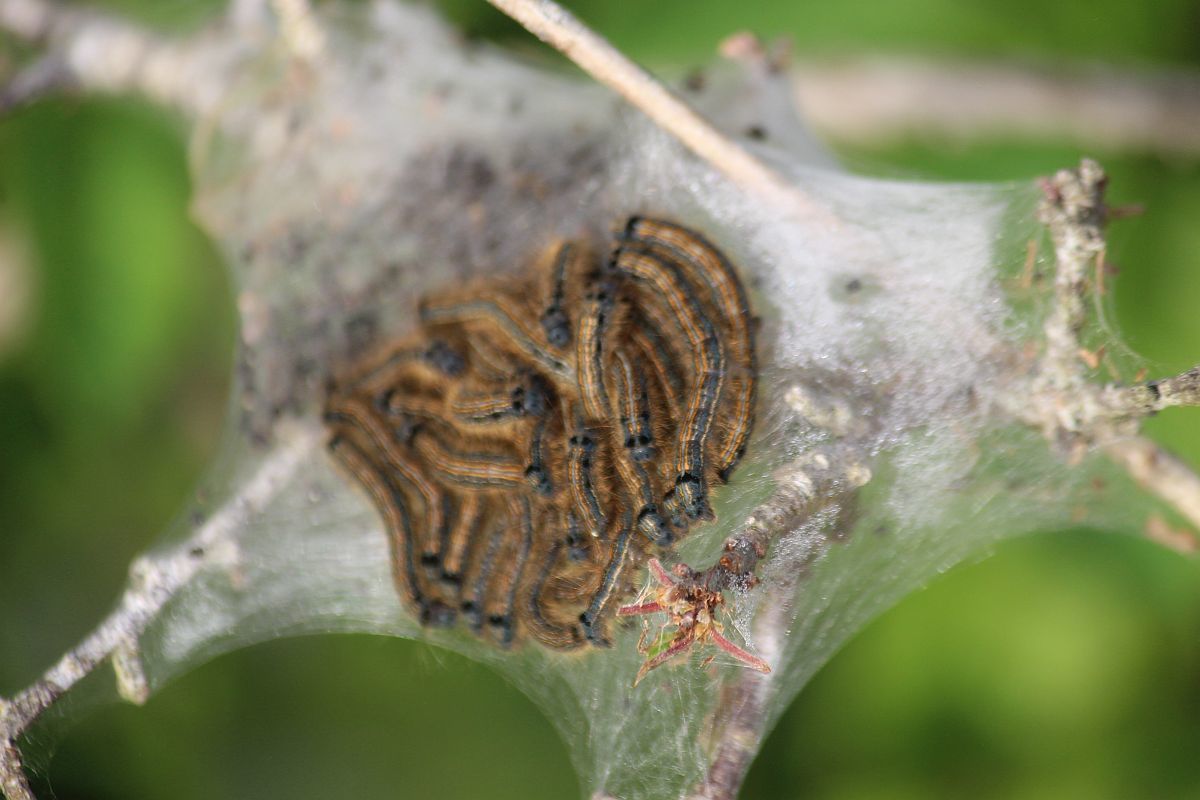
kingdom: Animalia
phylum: Arthropoda
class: Insecta
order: Lepidoptera
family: Lasiocampidae
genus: Malacosoma
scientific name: Malacosoma neustria
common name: The lackey
